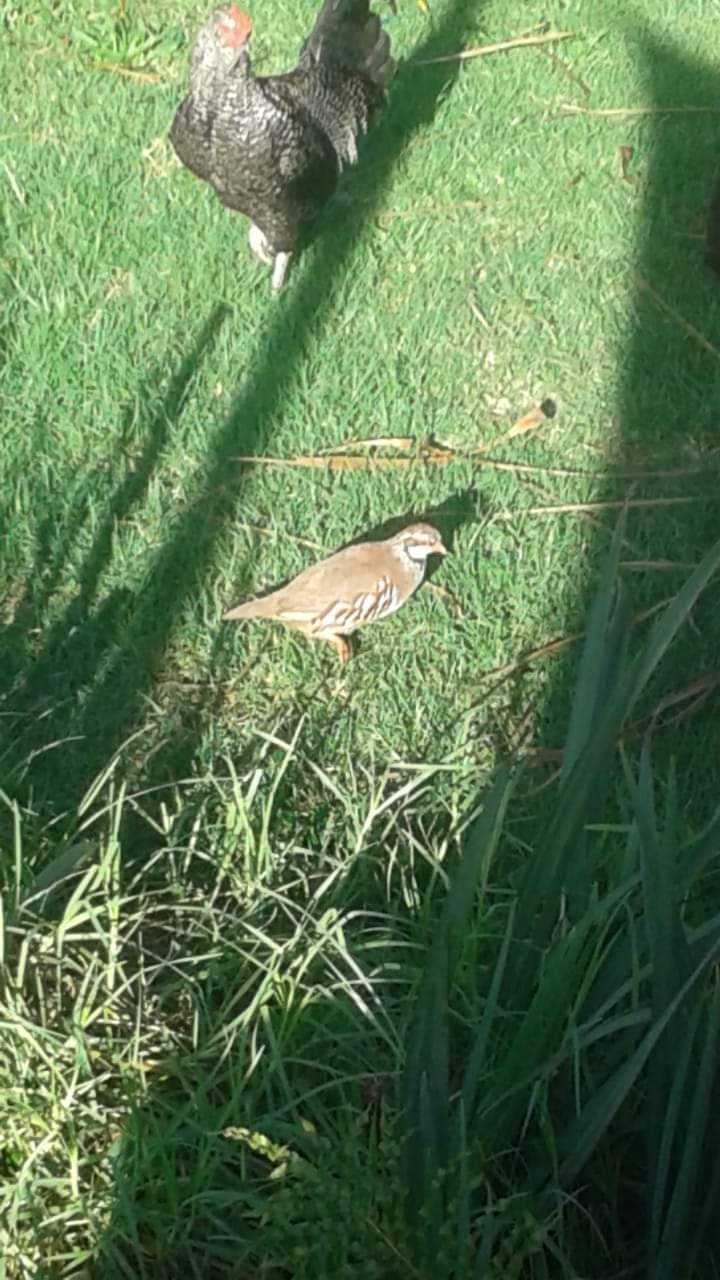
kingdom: Animalia
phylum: Chordata
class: Aves
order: Galliformes
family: Phasianidae
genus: Alectoris
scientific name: Alectoris rufa
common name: Red-legged partridge
